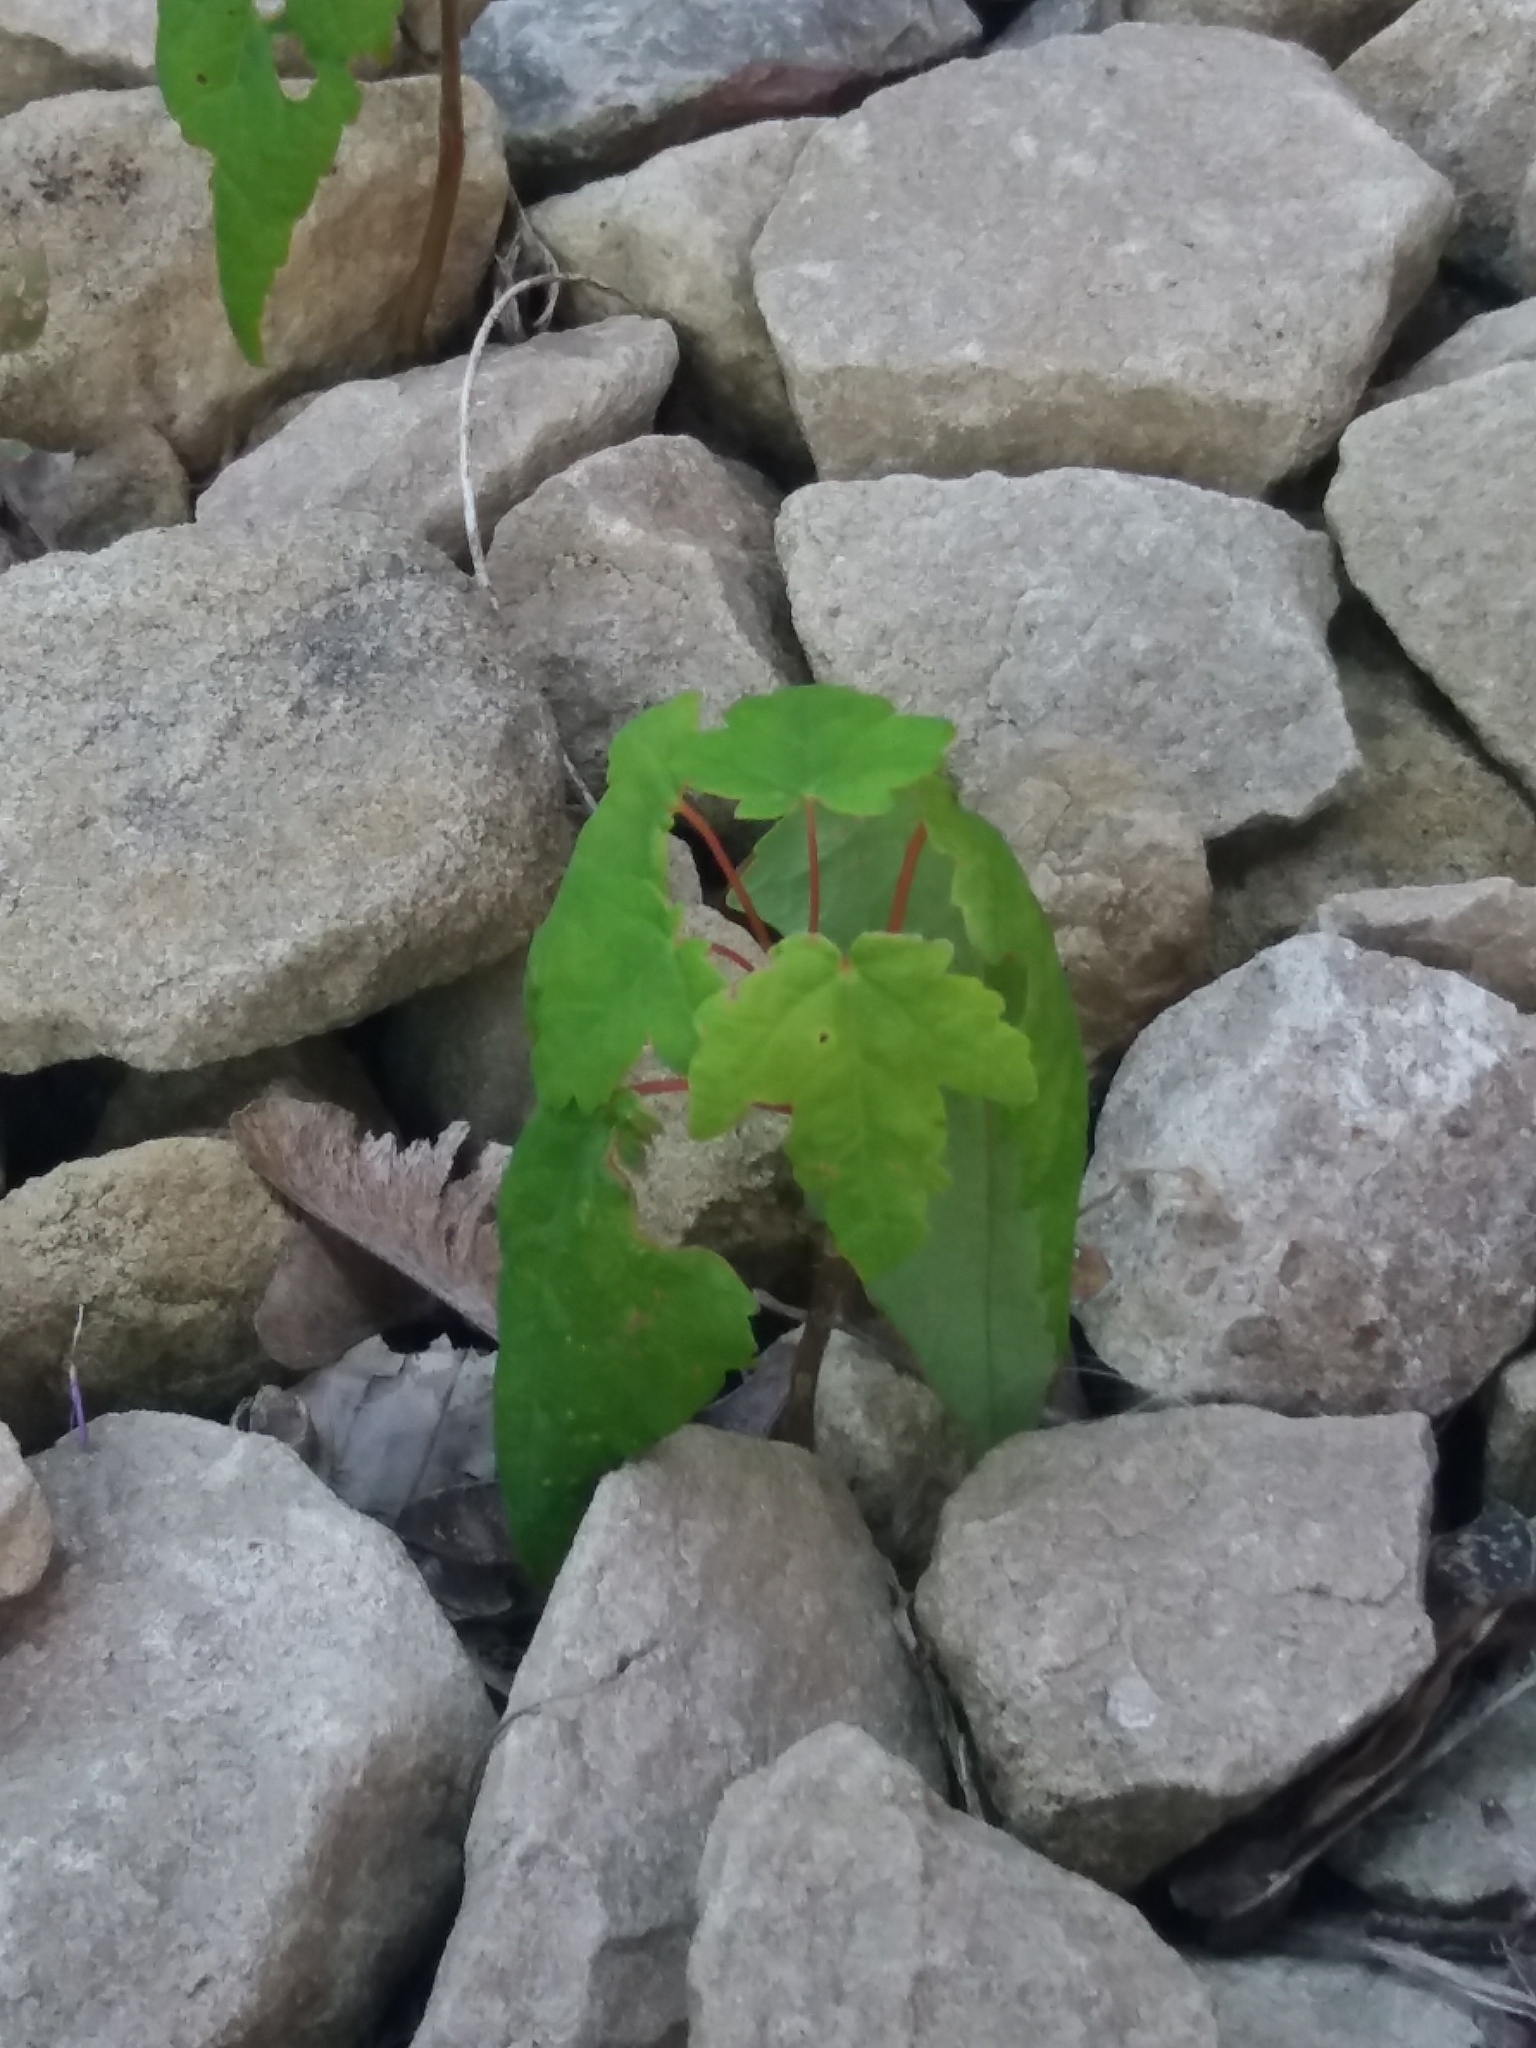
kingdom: Plantae
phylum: Tracheophyta
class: Magnoliopsida
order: Sapindales
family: Sapindaceae
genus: Acer
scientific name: Acer pseudoplatanus
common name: Sycamore
